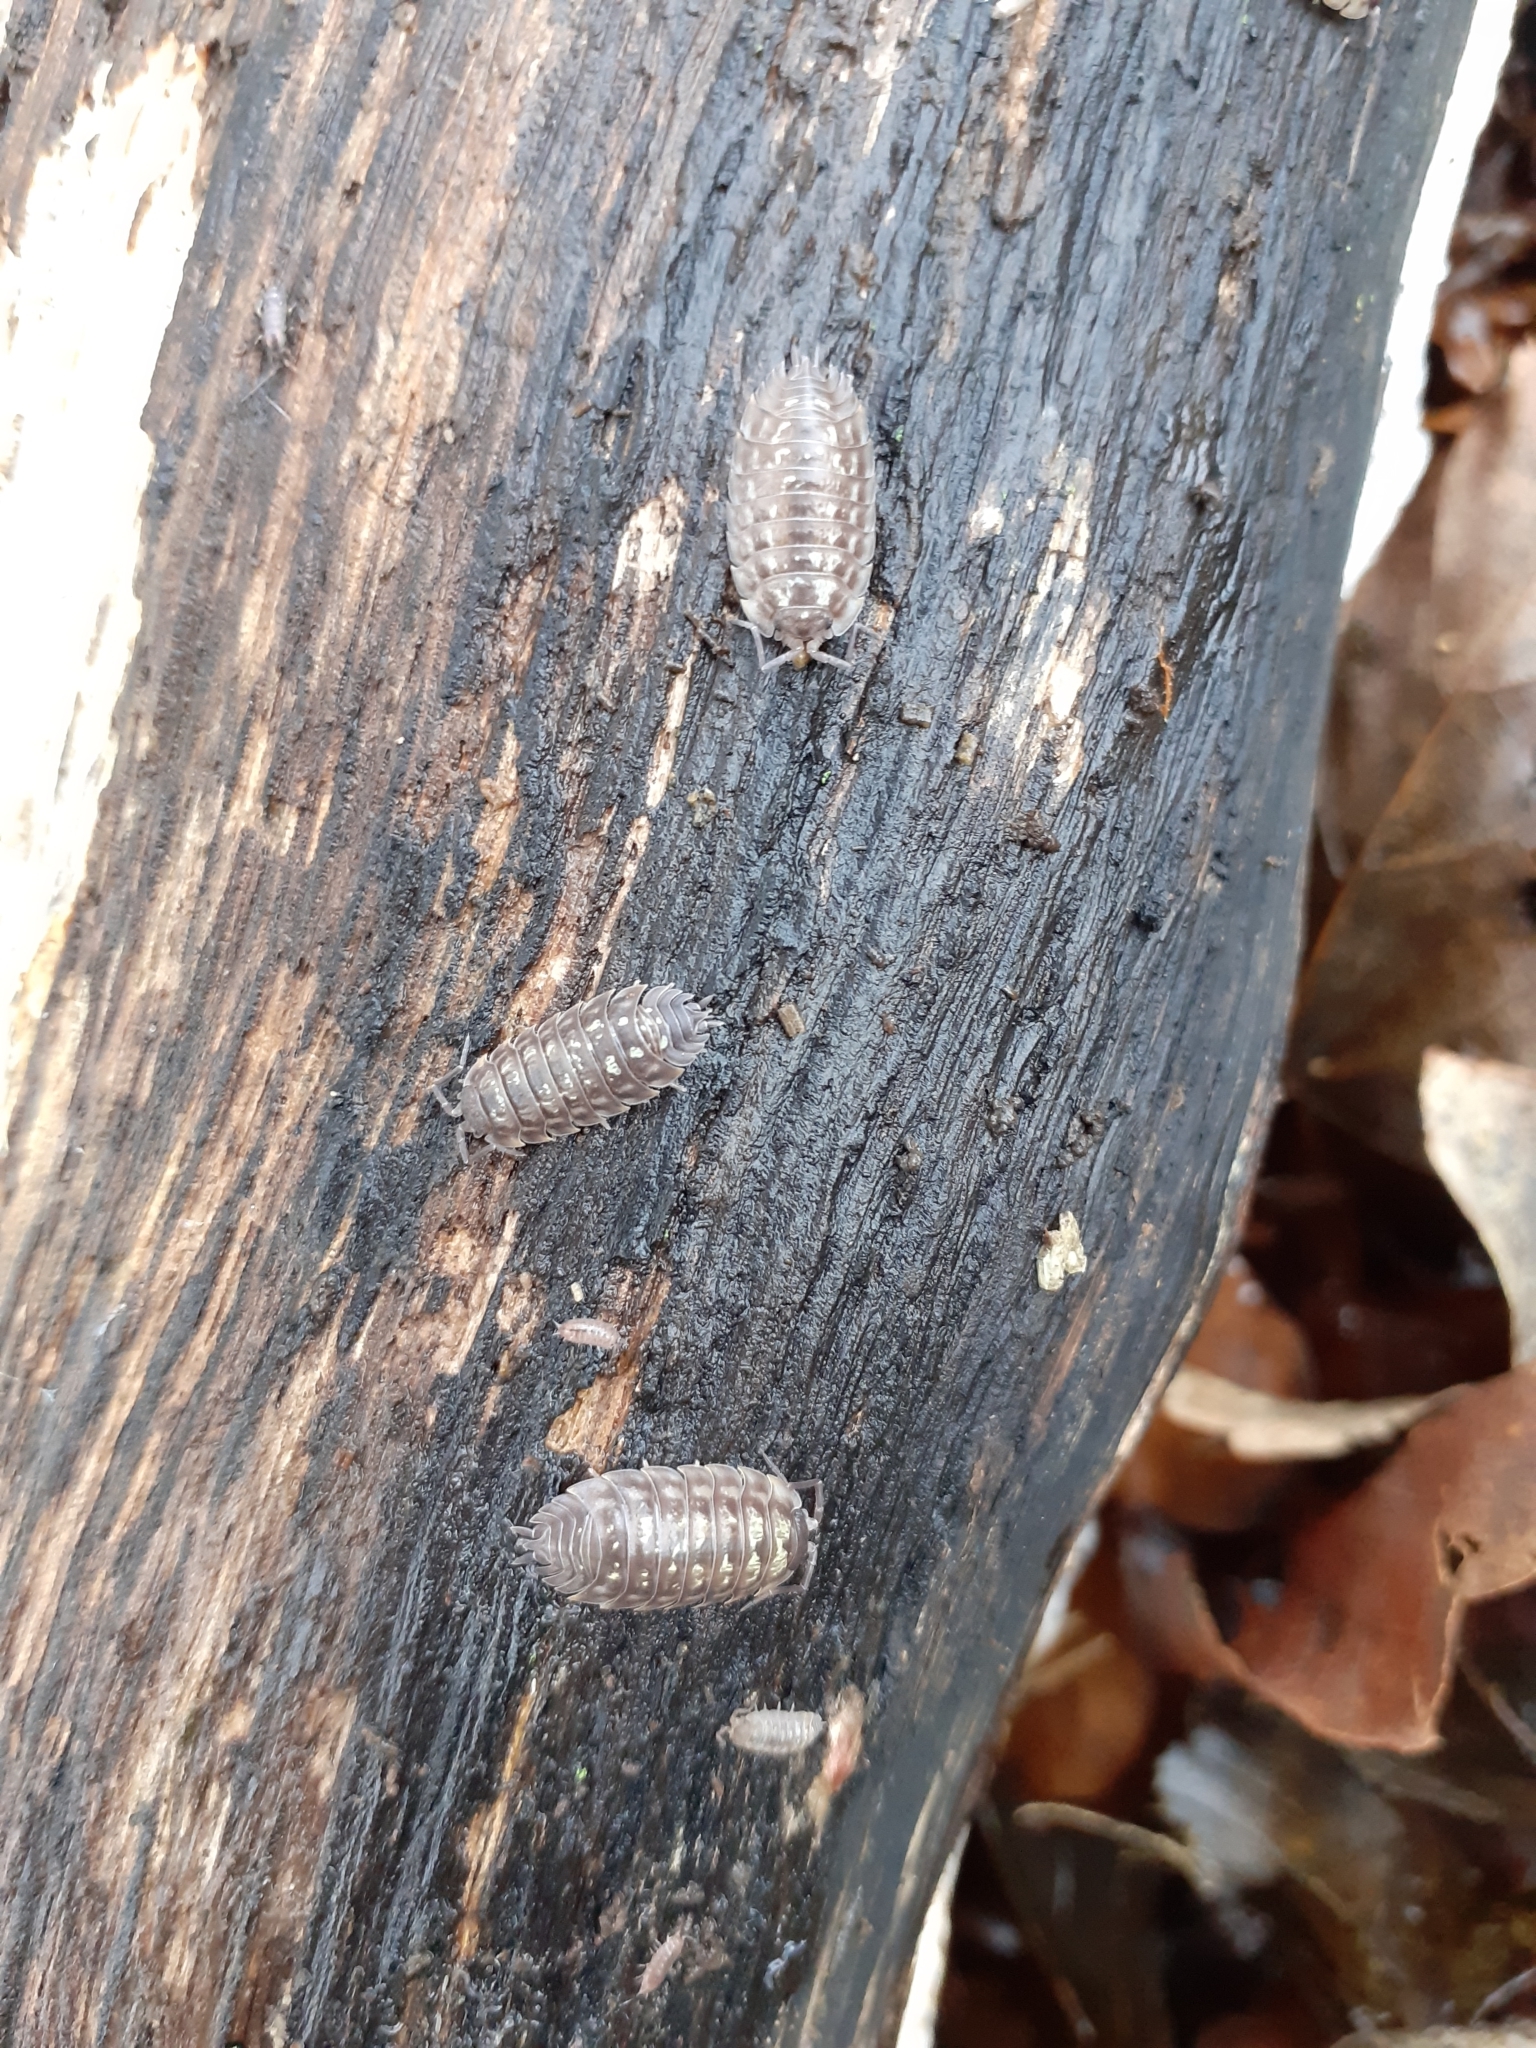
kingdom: Animalia
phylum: Arthropoda
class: Malacostraca
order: Isopoda
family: Oniscidae
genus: Oniscus
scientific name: Oniscus asellus
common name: Common shiny woodlouse
